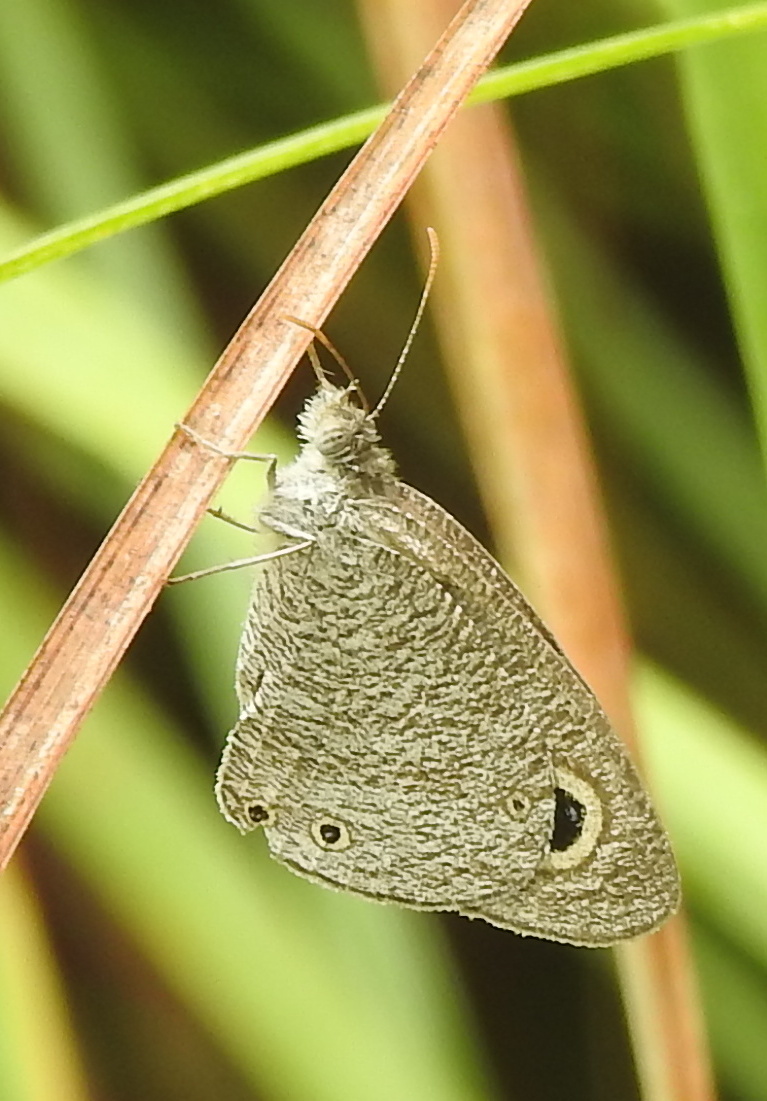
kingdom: Animalia
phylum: Arthropoda
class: Insecta
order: Lepidoptera
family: Nymphalidae
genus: Ypthima
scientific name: Ypthima asterope
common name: African ringlet
